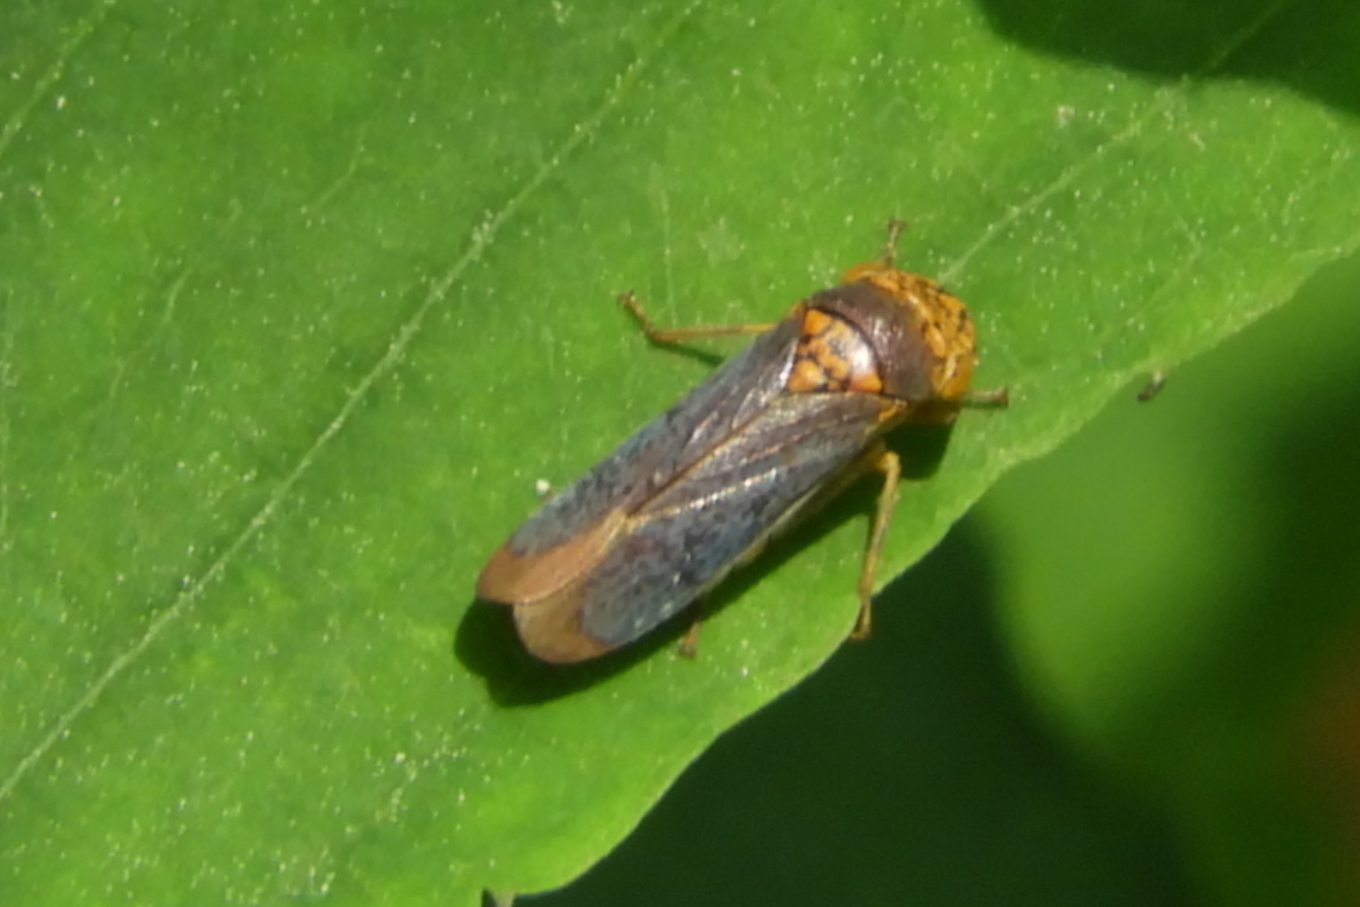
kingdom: Animalia
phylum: Arthropoda
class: Insecta
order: Hemiptera
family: Cicadellidae
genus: Oncometopia
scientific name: Oncometopia orbona
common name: Broad-headed sharpshooter
